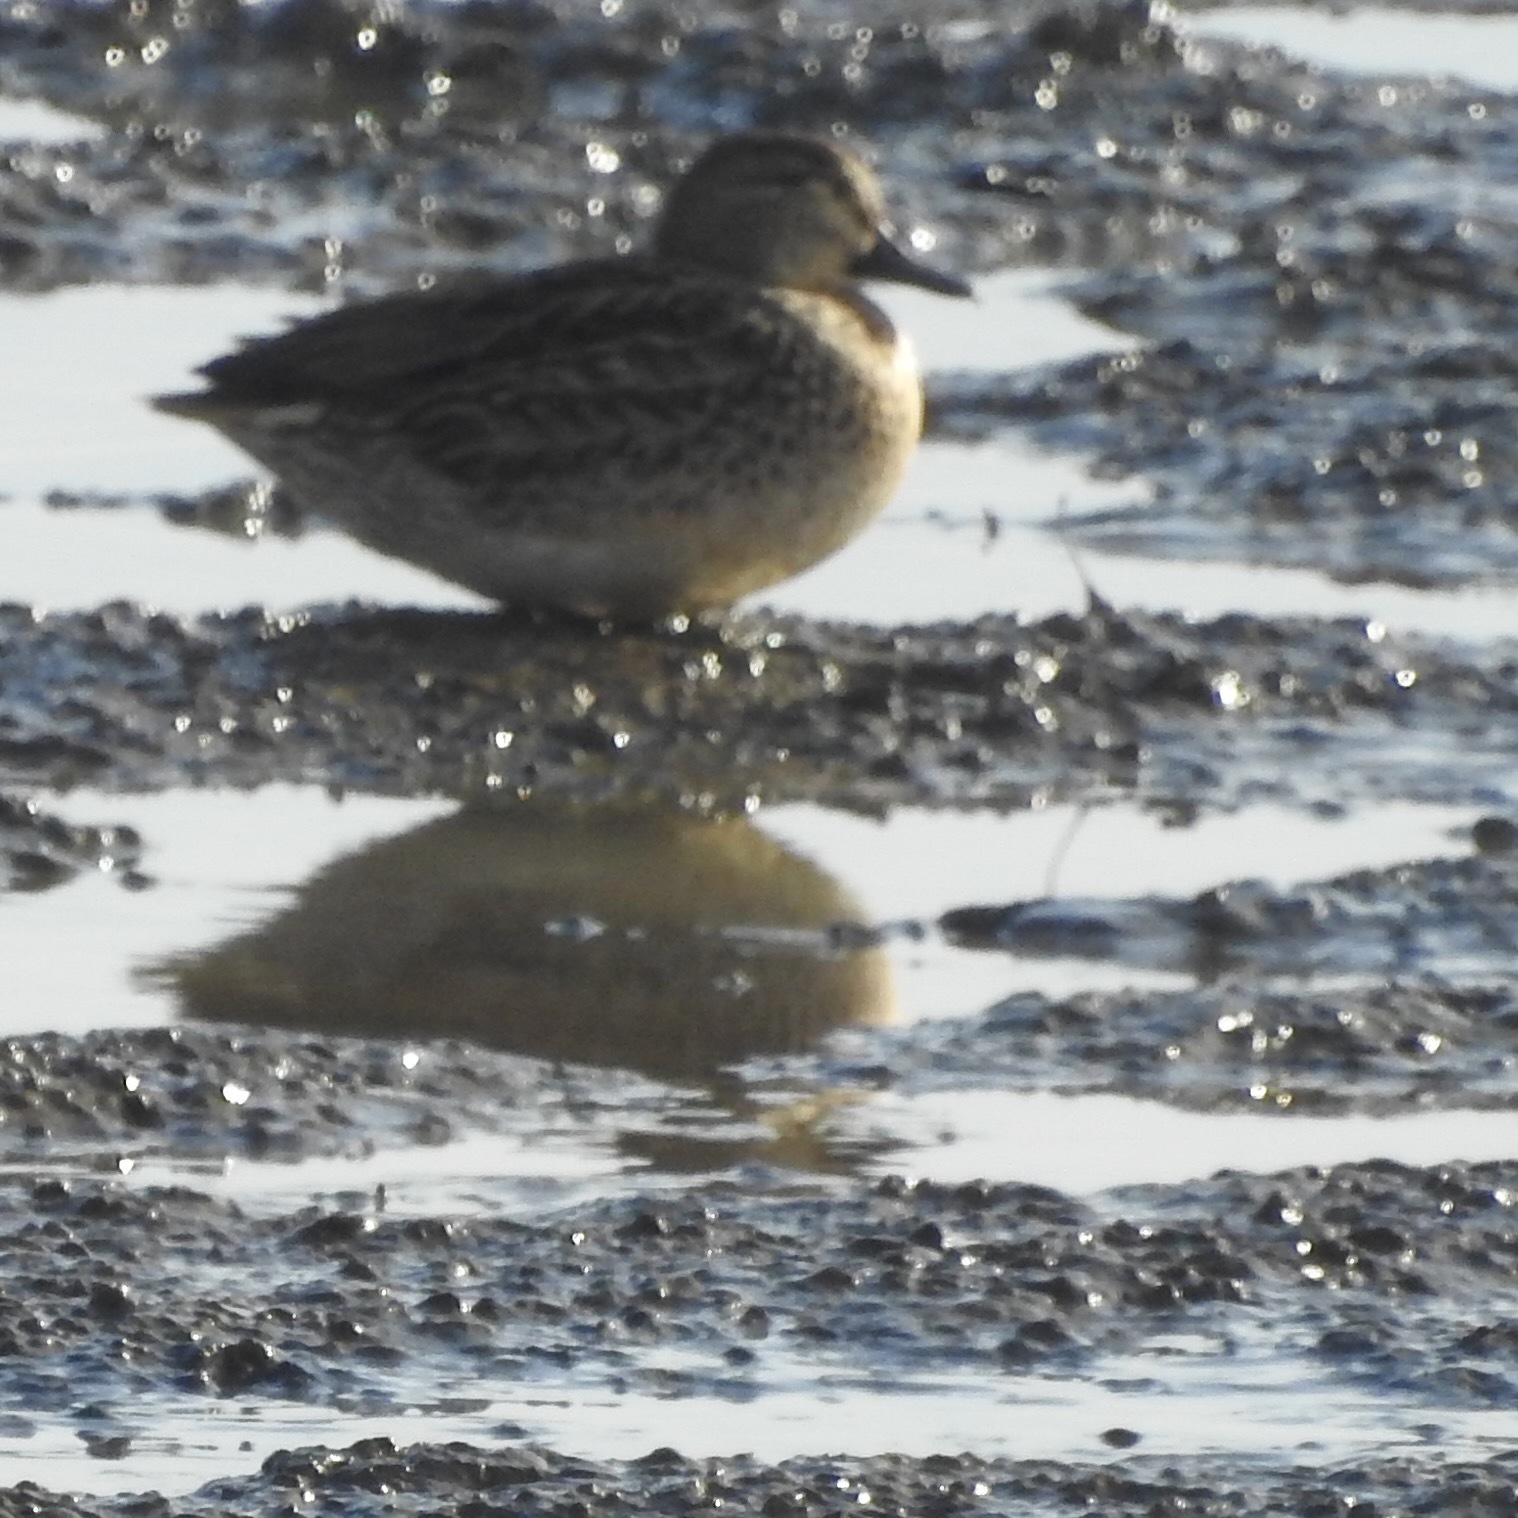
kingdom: Animalia
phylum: Chordata
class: Aves
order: Anseriformes
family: Anatidae
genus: Anas
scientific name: Anas crecca
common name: Eurasian teal
